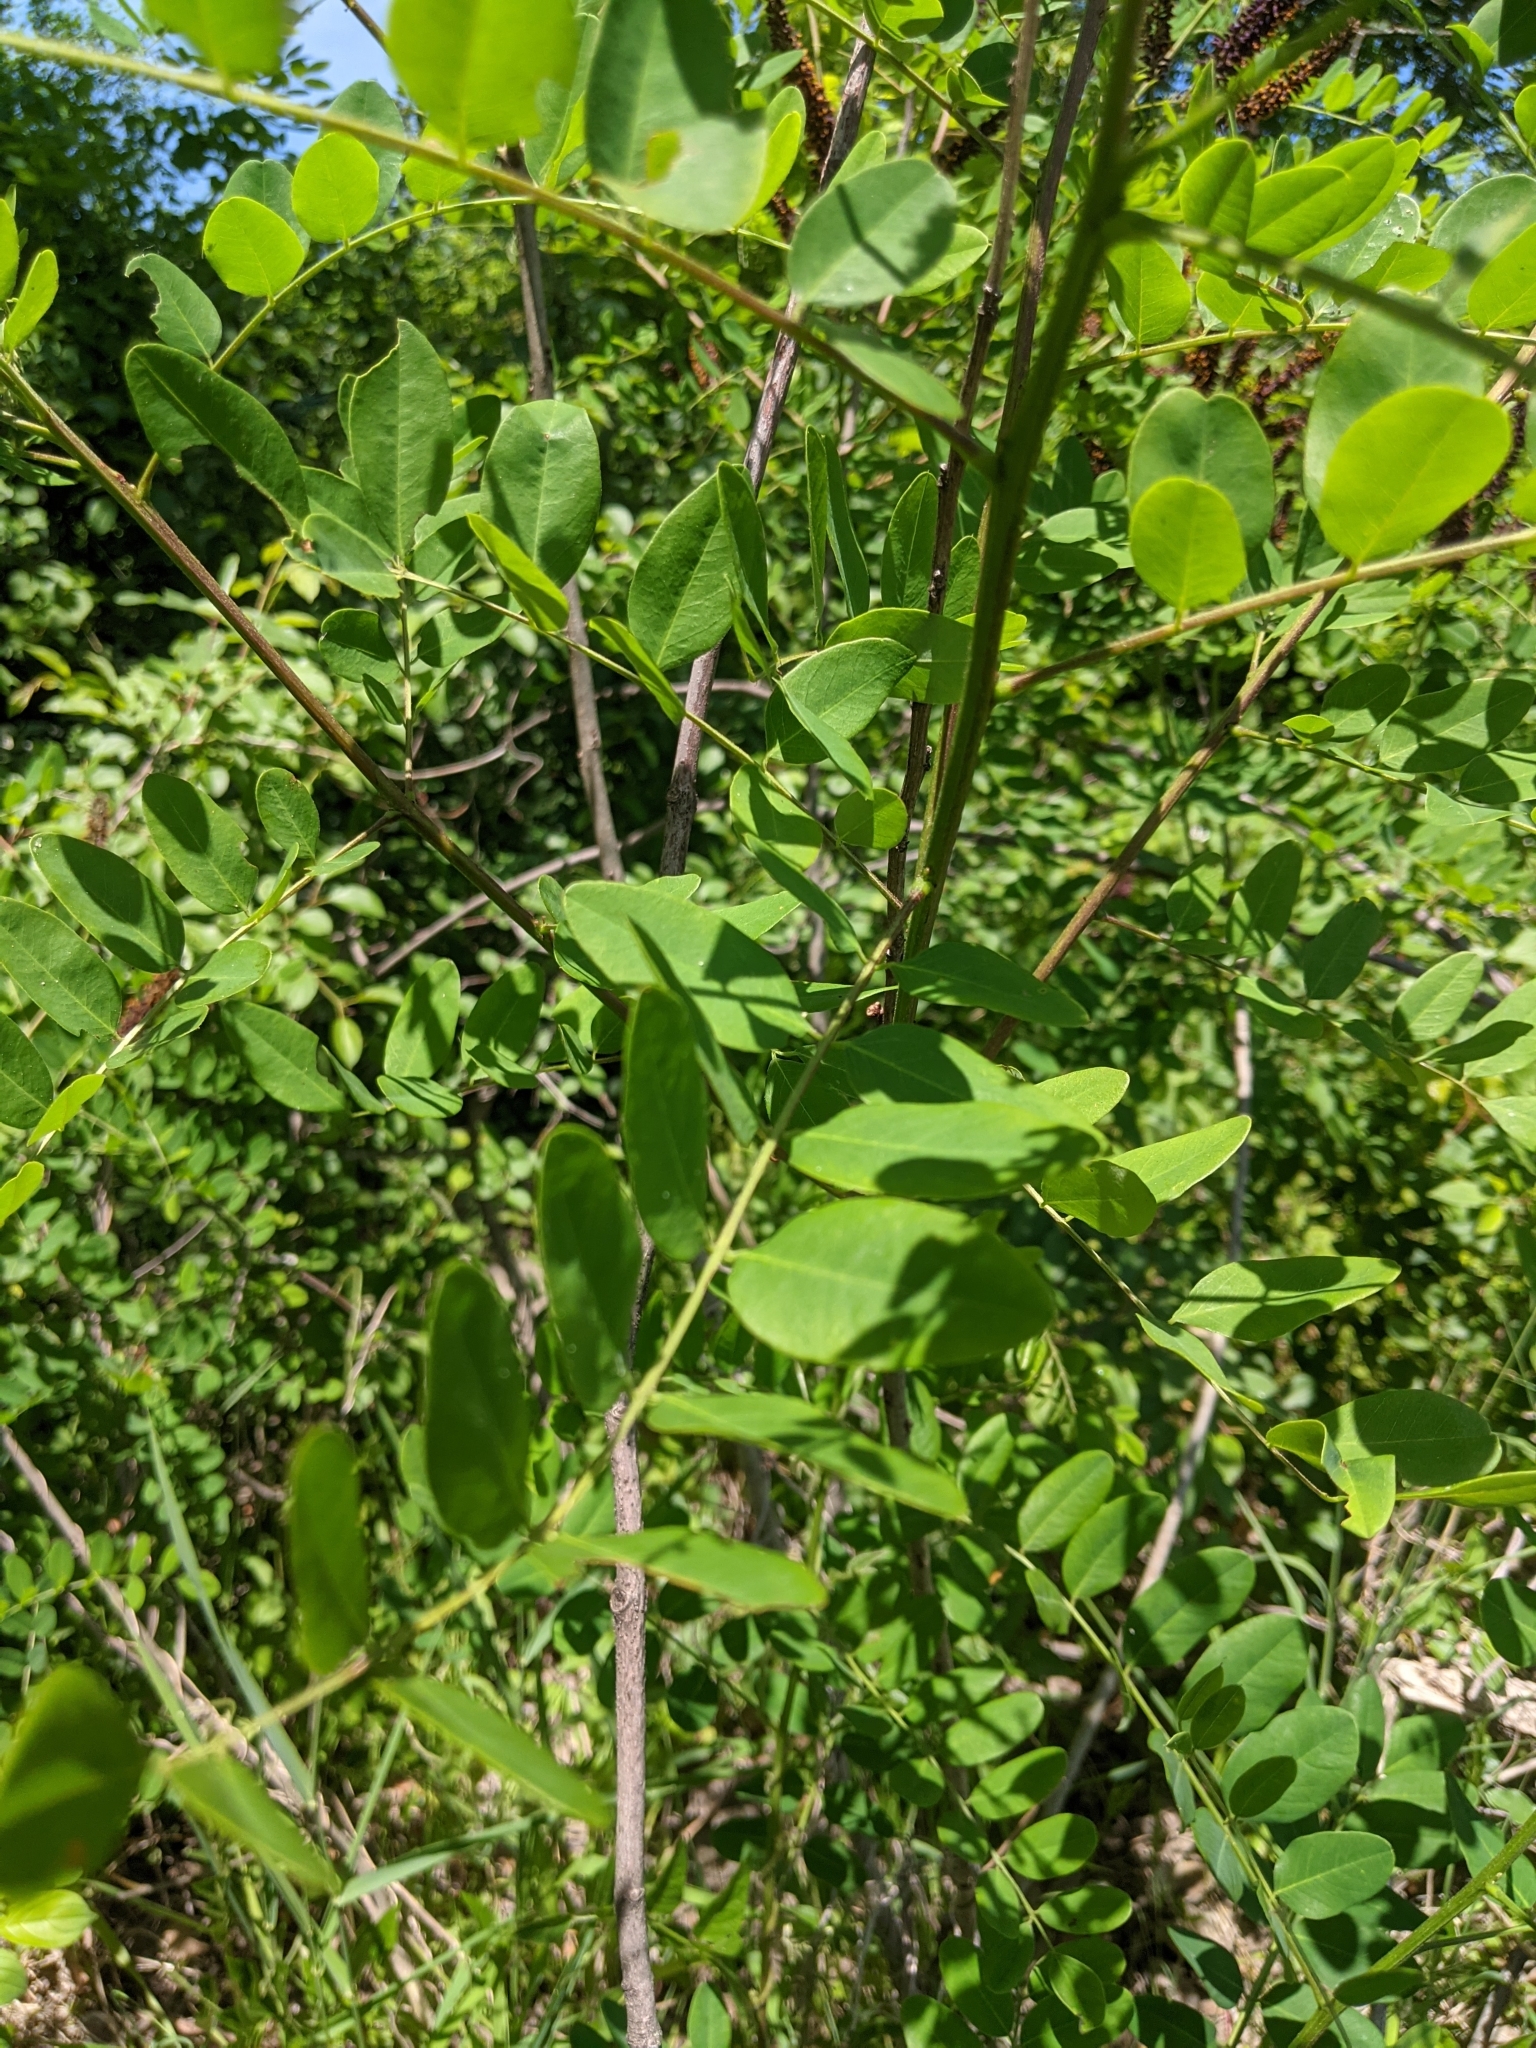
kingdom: Plantae
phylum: Tracheophyta
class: Magnoliopsida
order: Fabales
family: Fabaceae
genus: Amorpha
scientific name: Amorpha fruticosa
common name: False indigo
